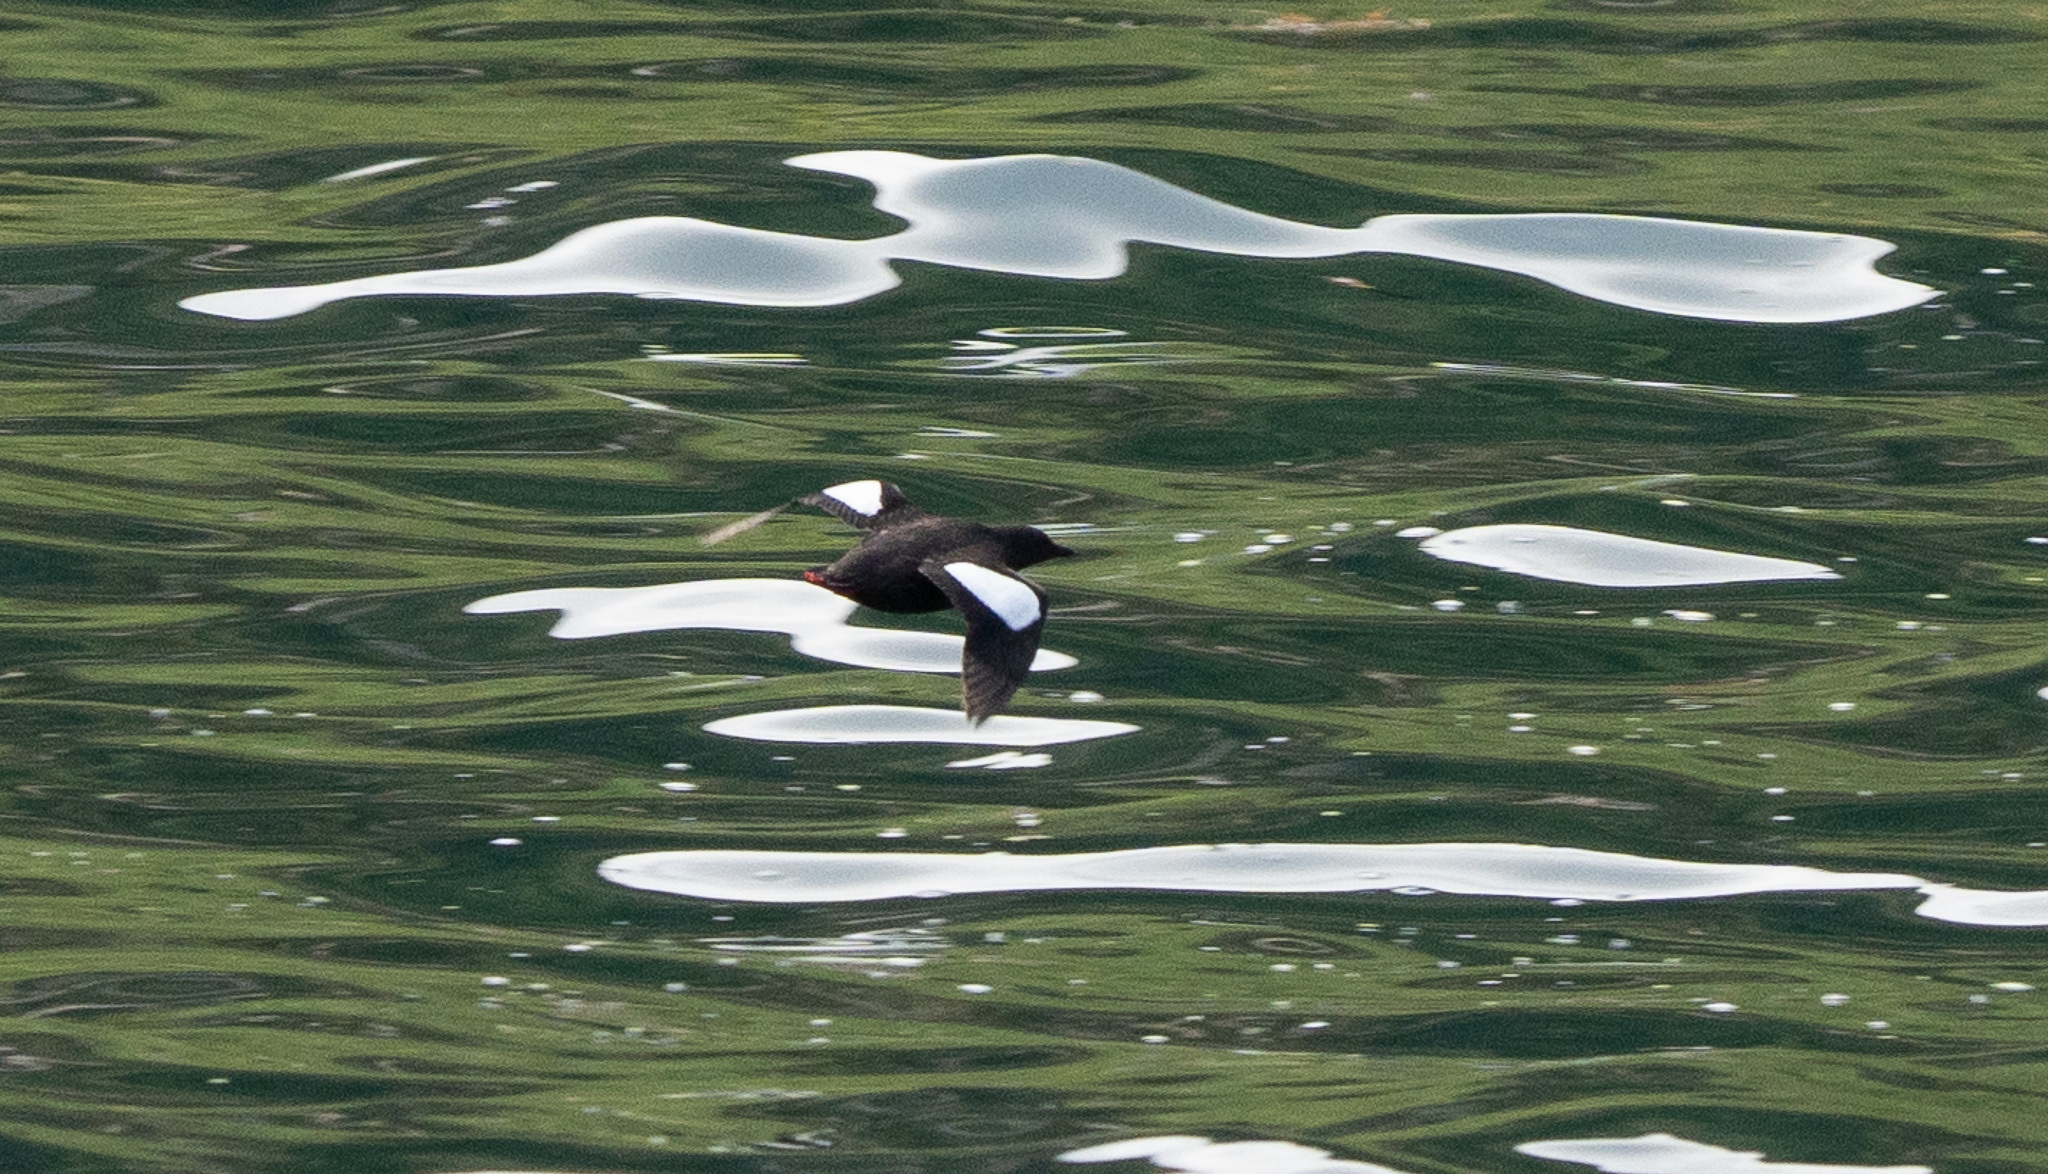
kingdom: Animalia
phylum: Chordata
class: Aves
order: Charadriiformes
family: Alcidae
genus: Cepphus
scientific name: Cepphus grylle
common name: Black guillemot
